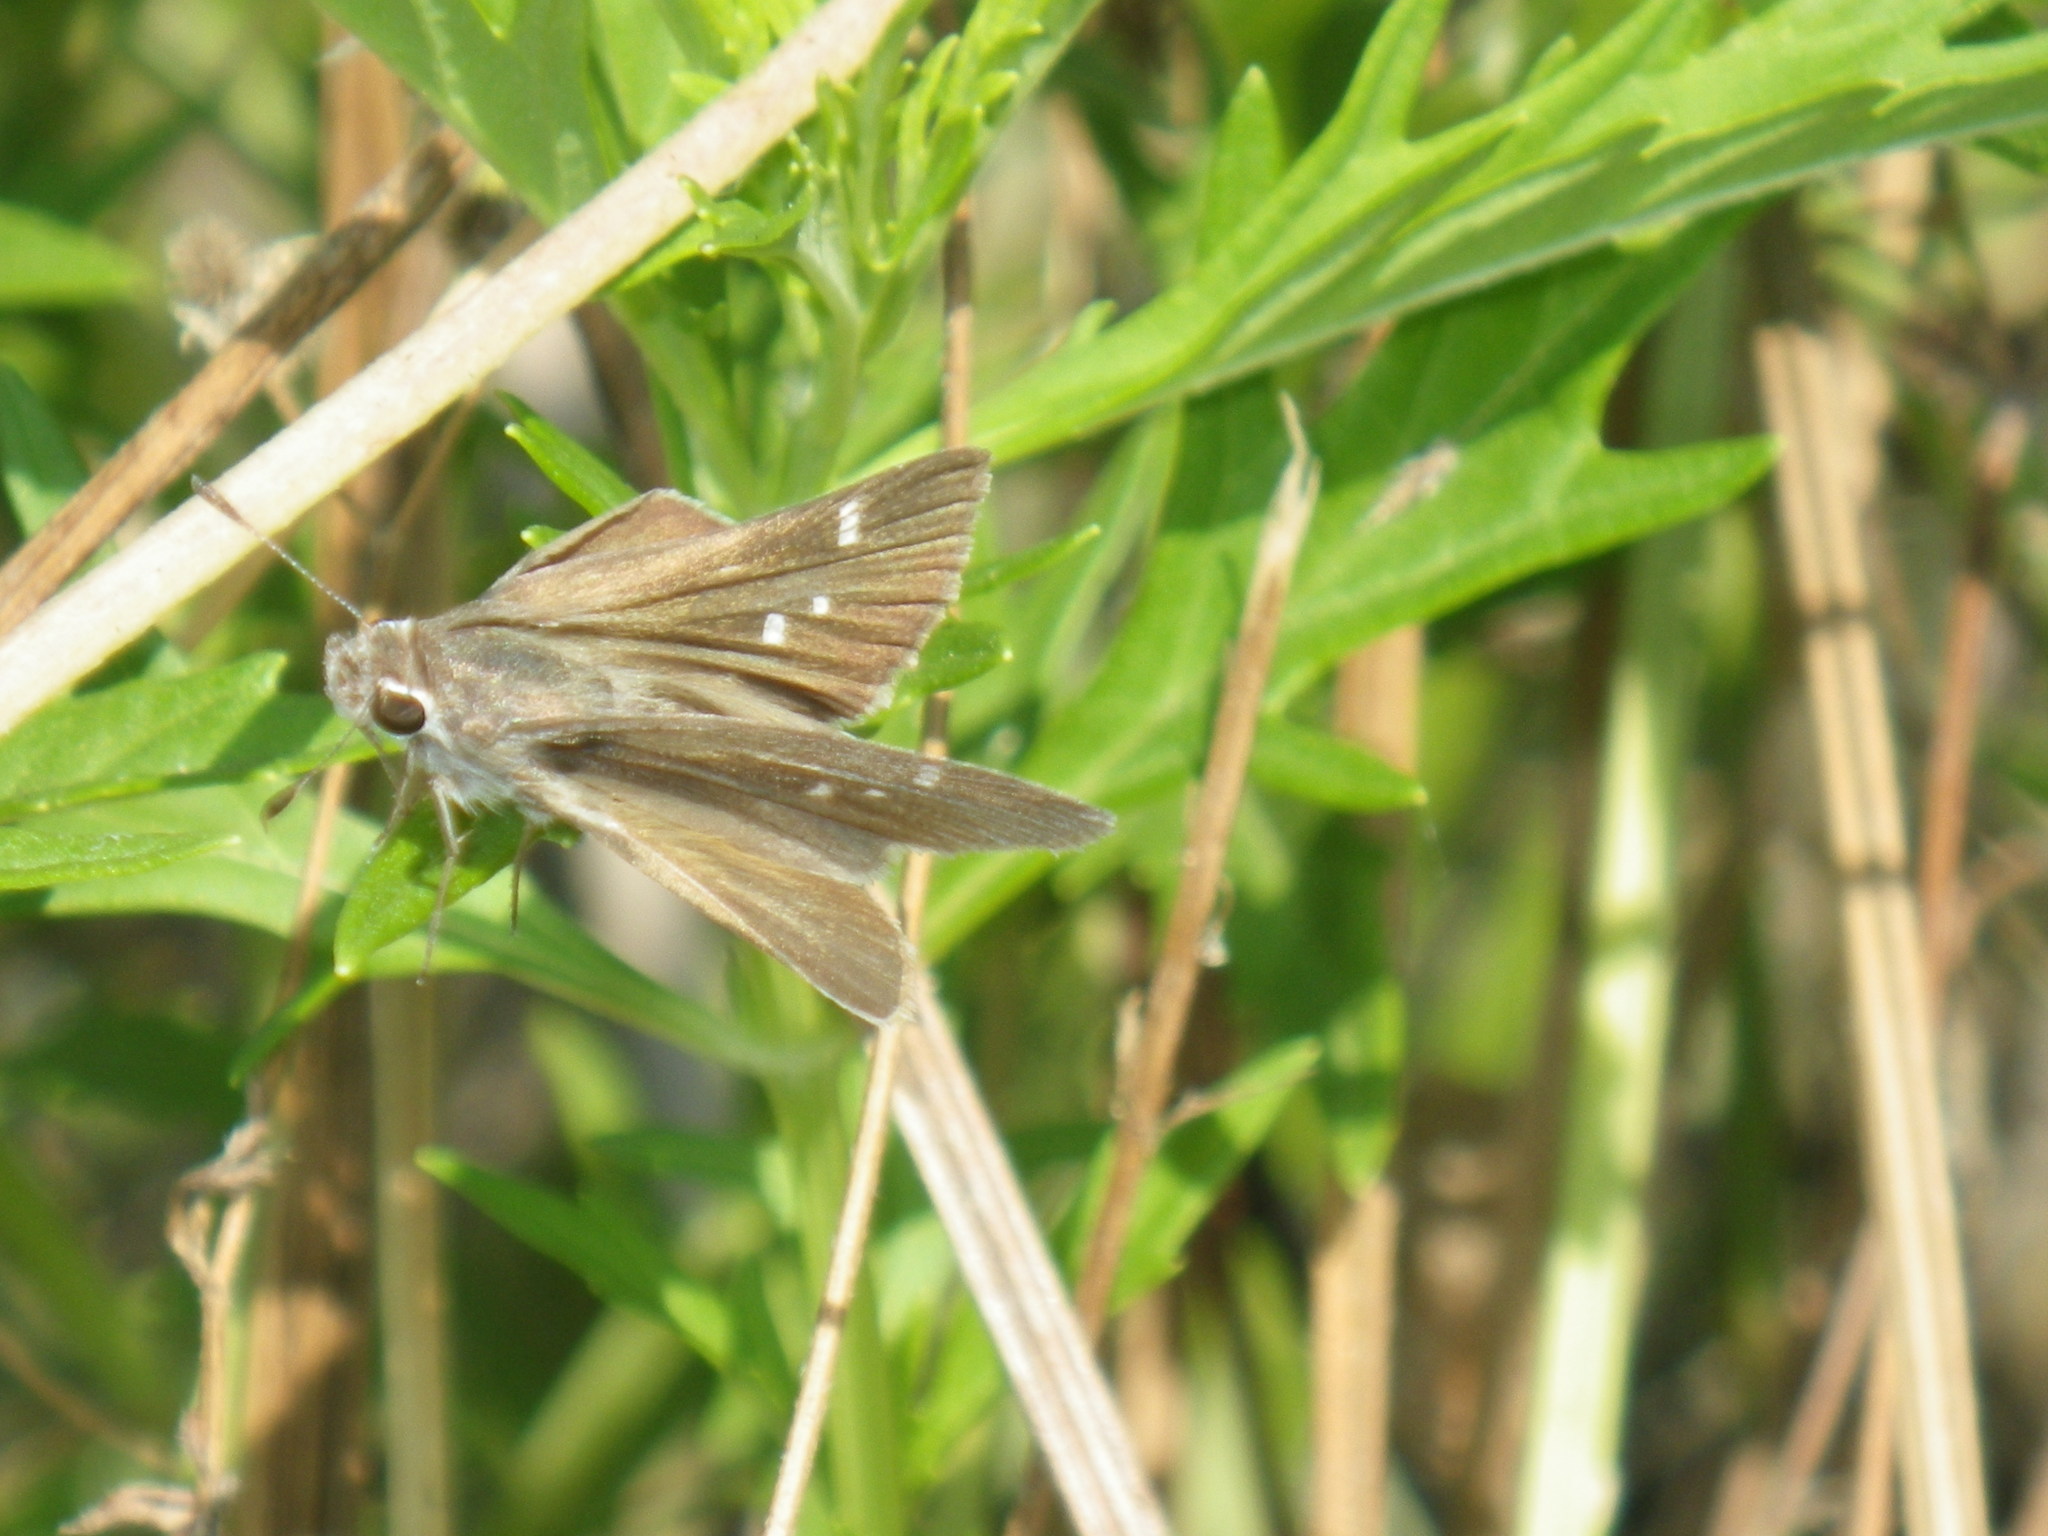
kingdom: Animalia
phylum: Arthropoda
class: Insecta
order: Lepidoptera
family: Hesperiidae
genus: Lerodea
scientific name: Lerodea eufala
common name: Eufala skipper
